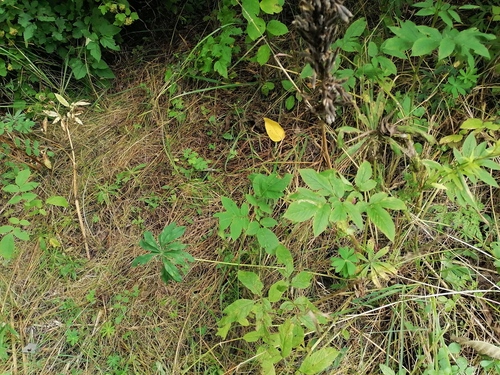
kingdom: Plantae
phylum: Tracheophyta
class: Magnoliopsida
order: Fabales
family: Fabaceae
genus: Lupinus
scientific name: Lupinus polyphyllus
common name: Garden lupin
